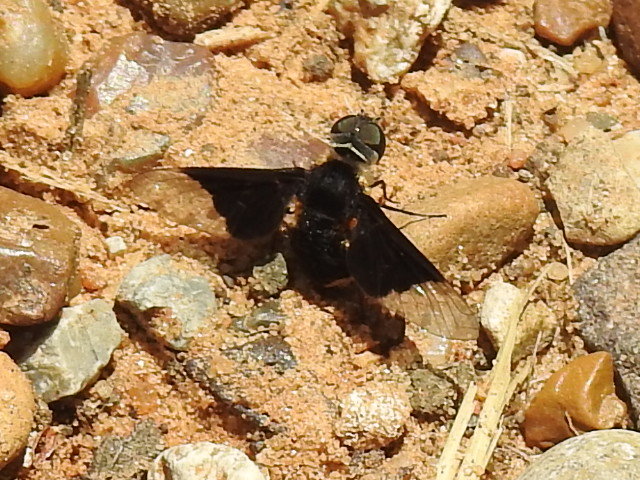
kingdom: Animalia
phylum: Arthropoda
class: Insecta
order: Diptera
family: Bombyliidae
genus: Ins
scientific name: Ins celeris
